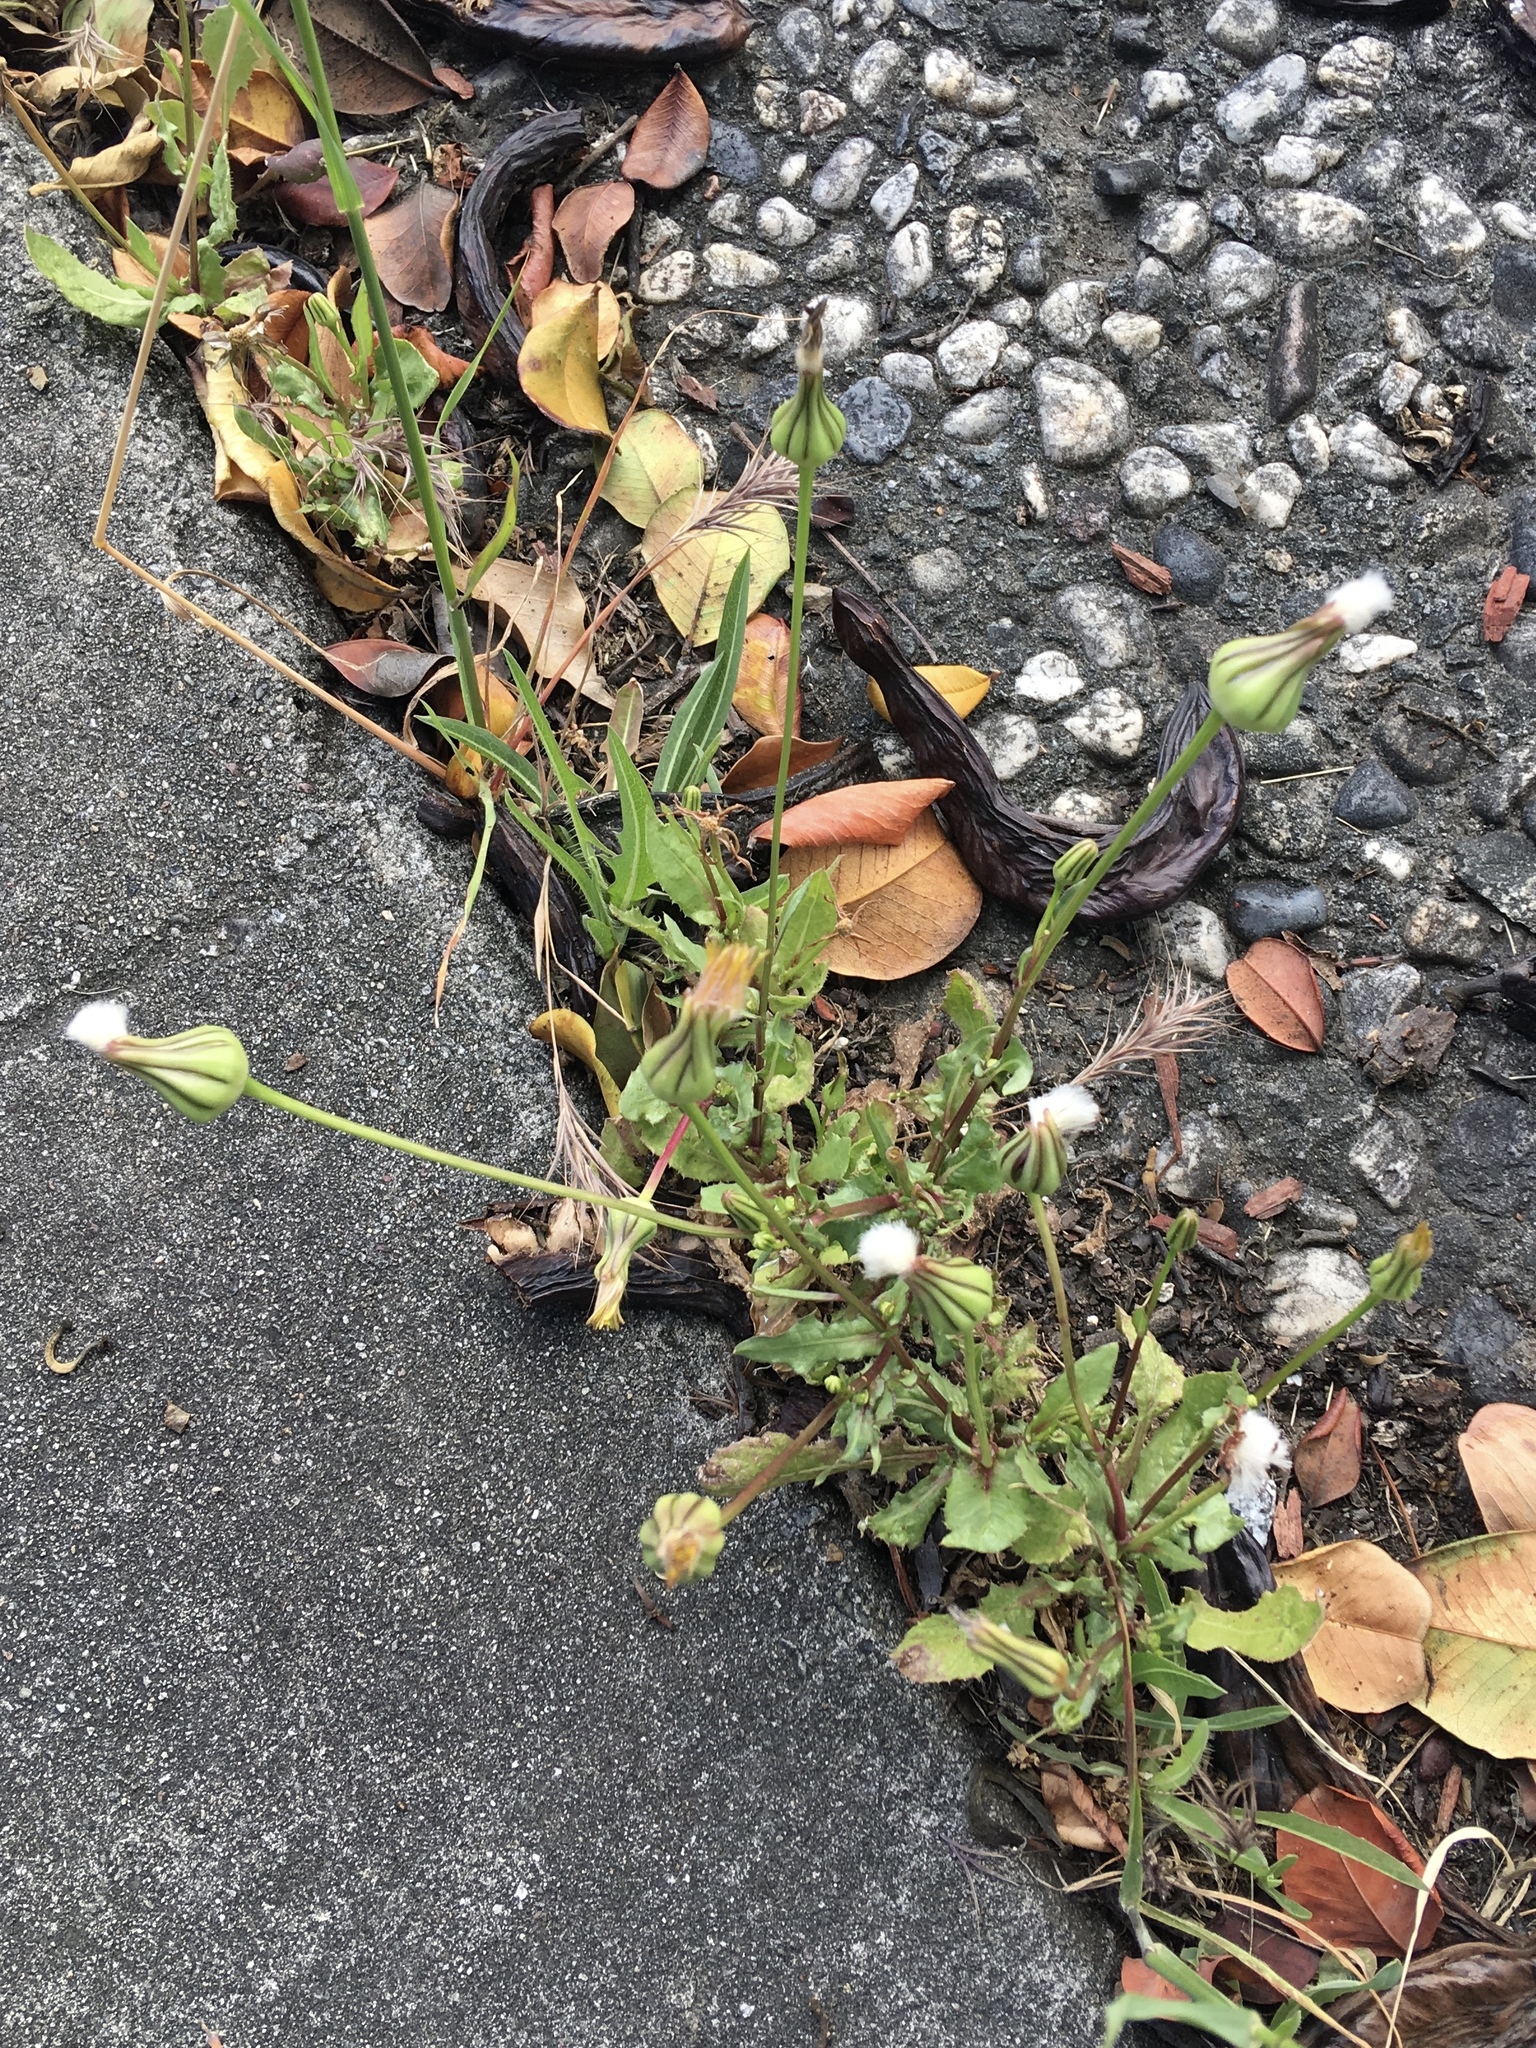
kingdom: Plantae
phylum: Tracheophyta
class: Magnoliopsida
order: Asterales
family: Asteraceae
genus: Urospermum
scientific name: Urospermum picroides
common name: False hawkbit
